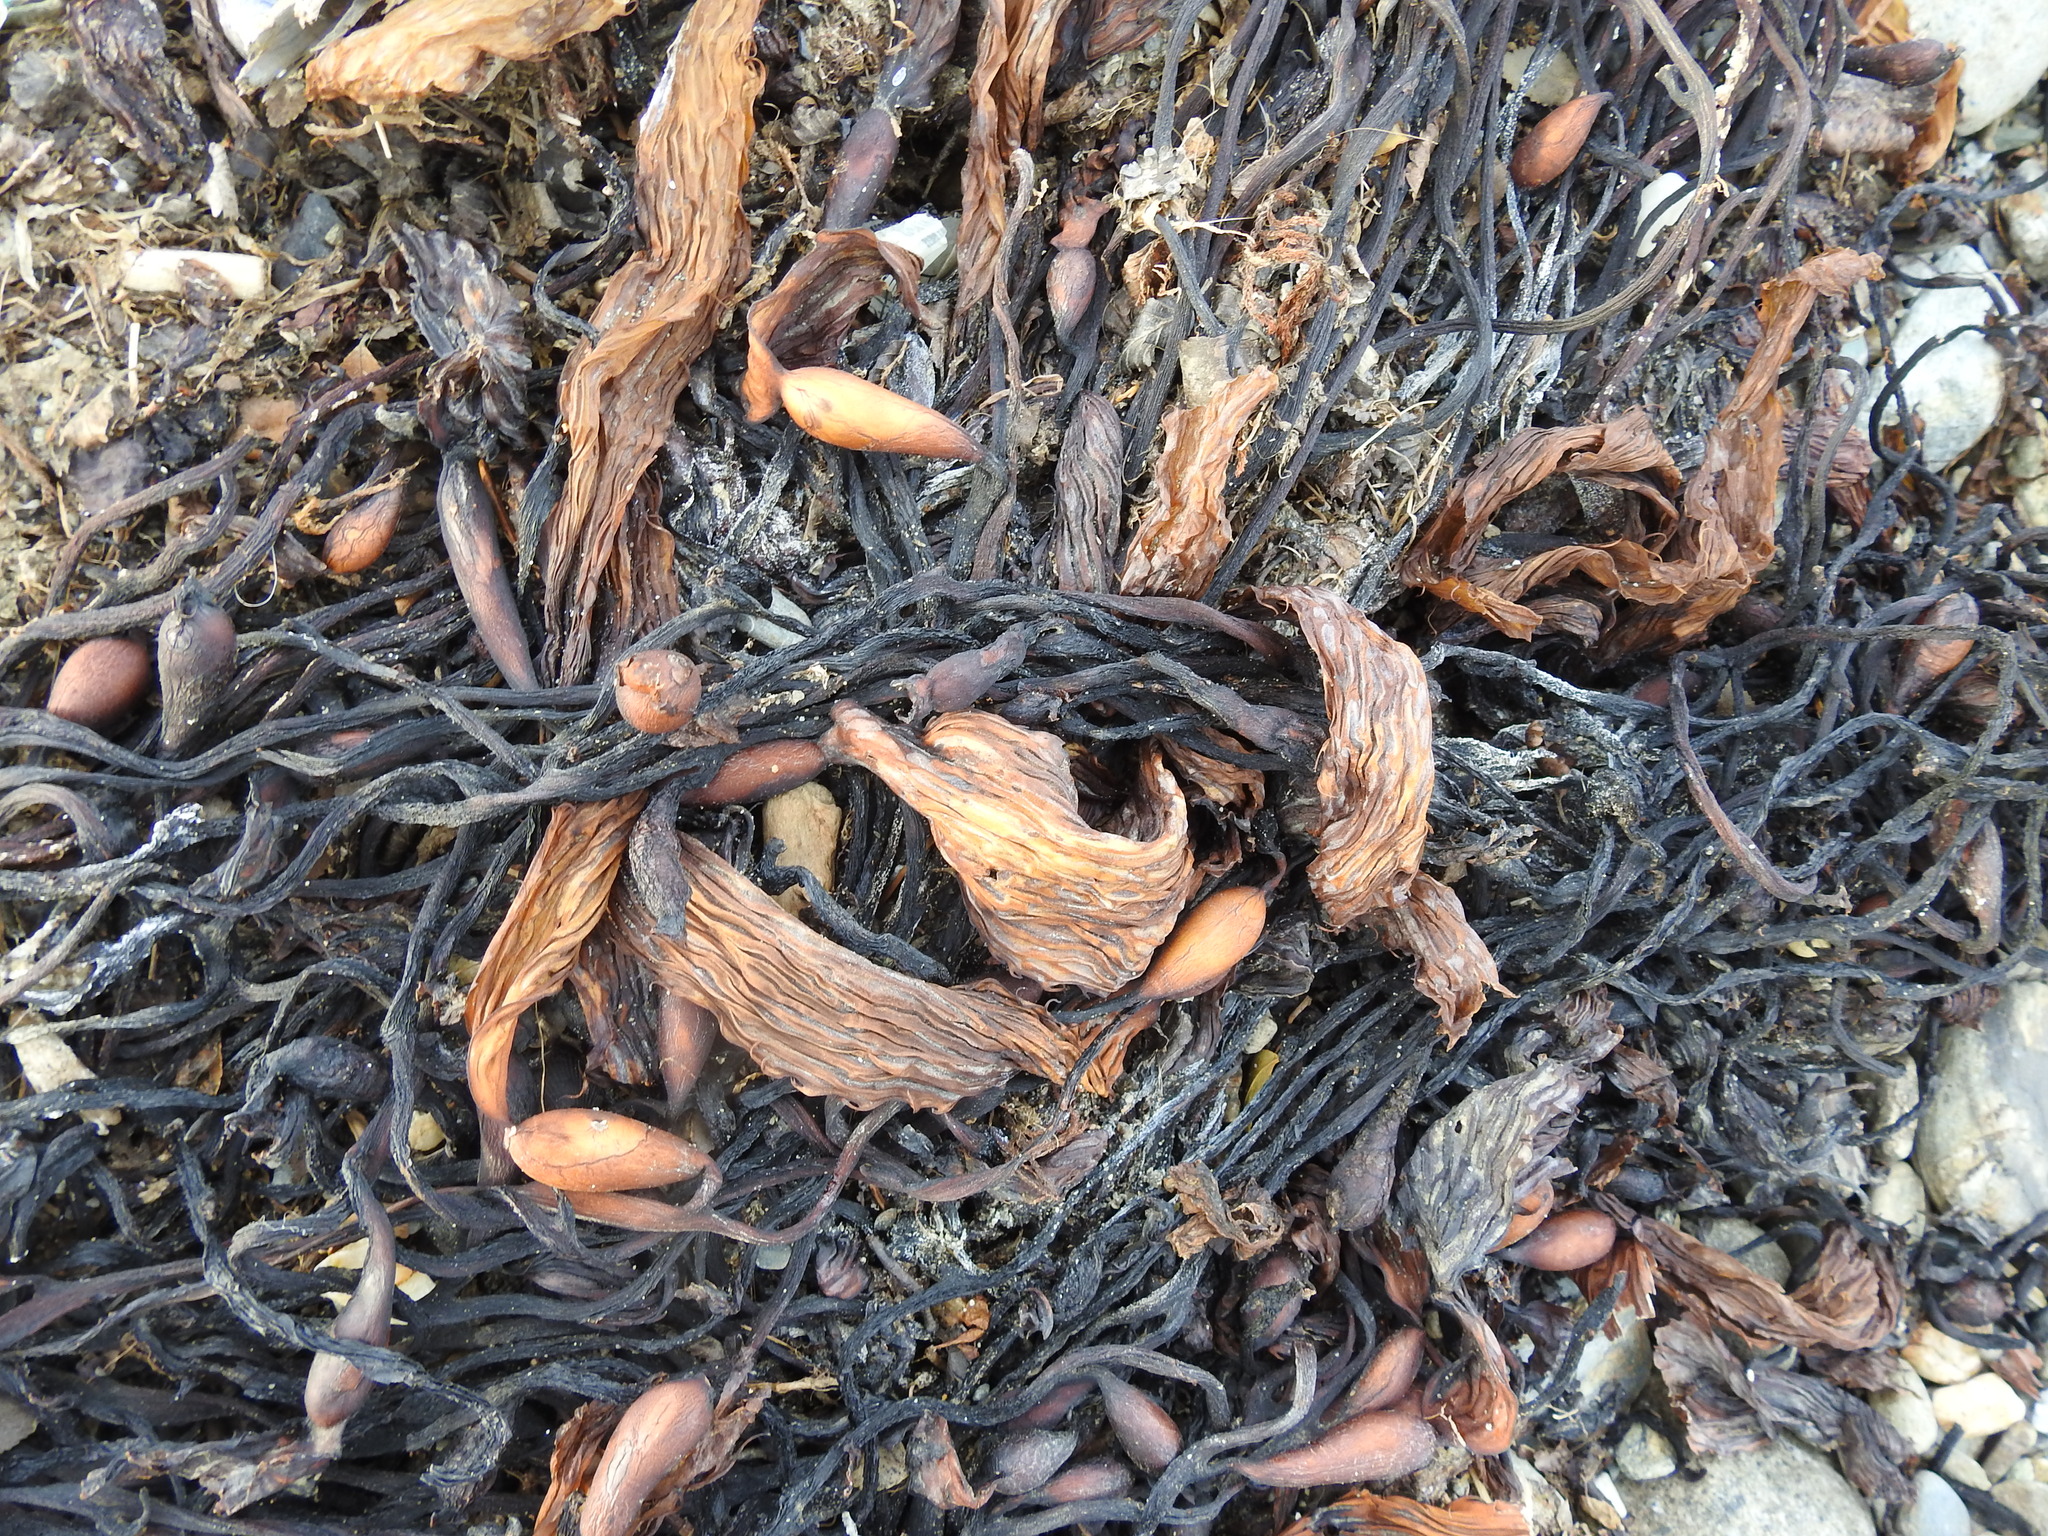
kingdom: Chromista
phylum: Ochrophyta
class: Phaeophyceae
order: Laminariales
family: Laminariaceae
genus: Macrocystis
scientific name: Macrocystis pyrifera
